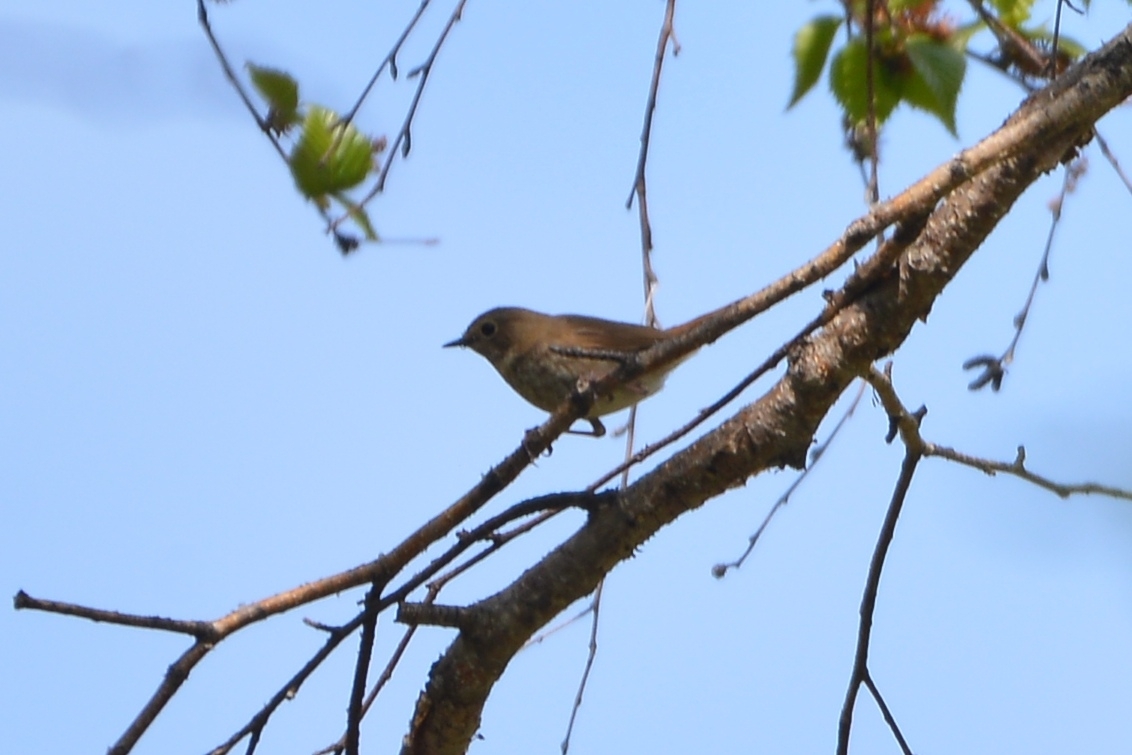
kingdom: Animalia
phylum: Chordata
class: Aves
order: Passeriformes
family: Muscicapidae
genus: Larvivora
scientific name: Larvivora sibilans
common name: Rufous-tailed robin
